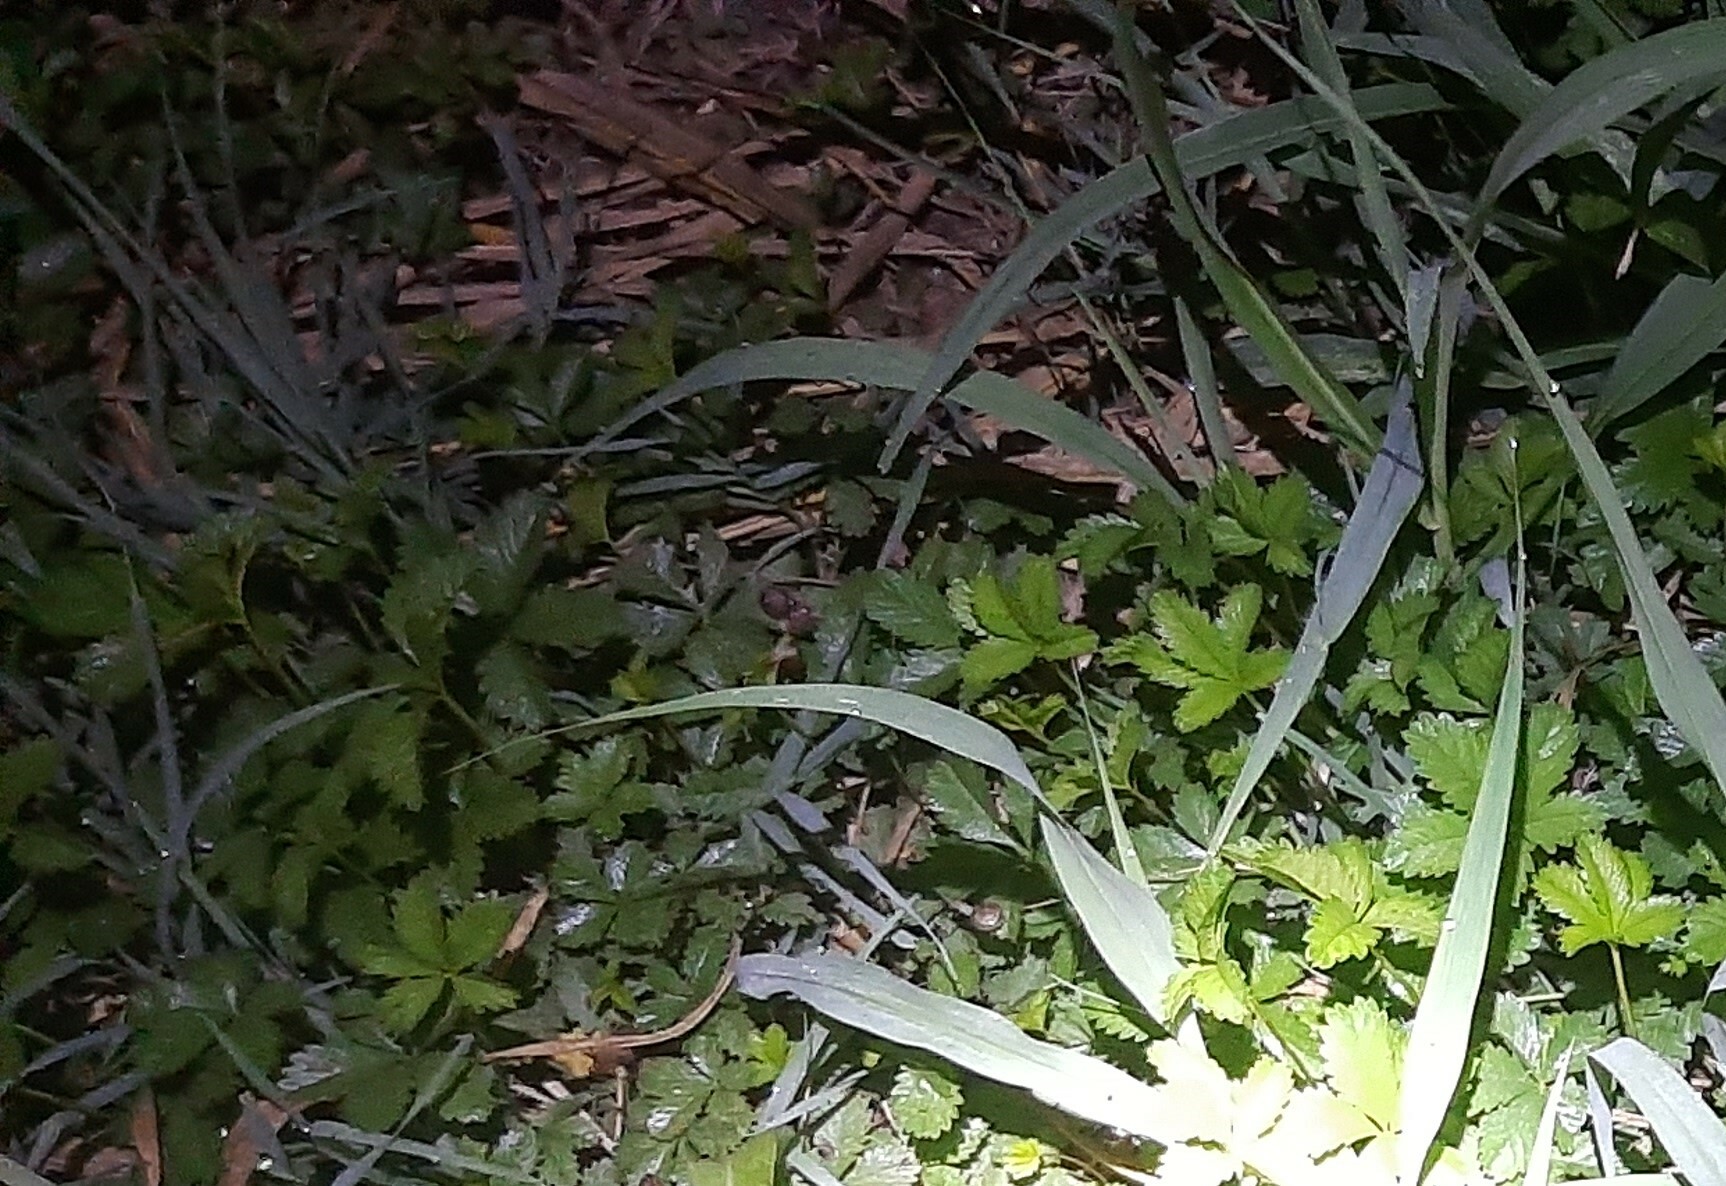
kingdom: Plantae
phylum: Tracheophyta
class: Magnoliopsida
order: Rosales
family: Rosaceae
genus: Potentilla
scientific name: Potentilla reptans
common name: Creeping cinquefoil
